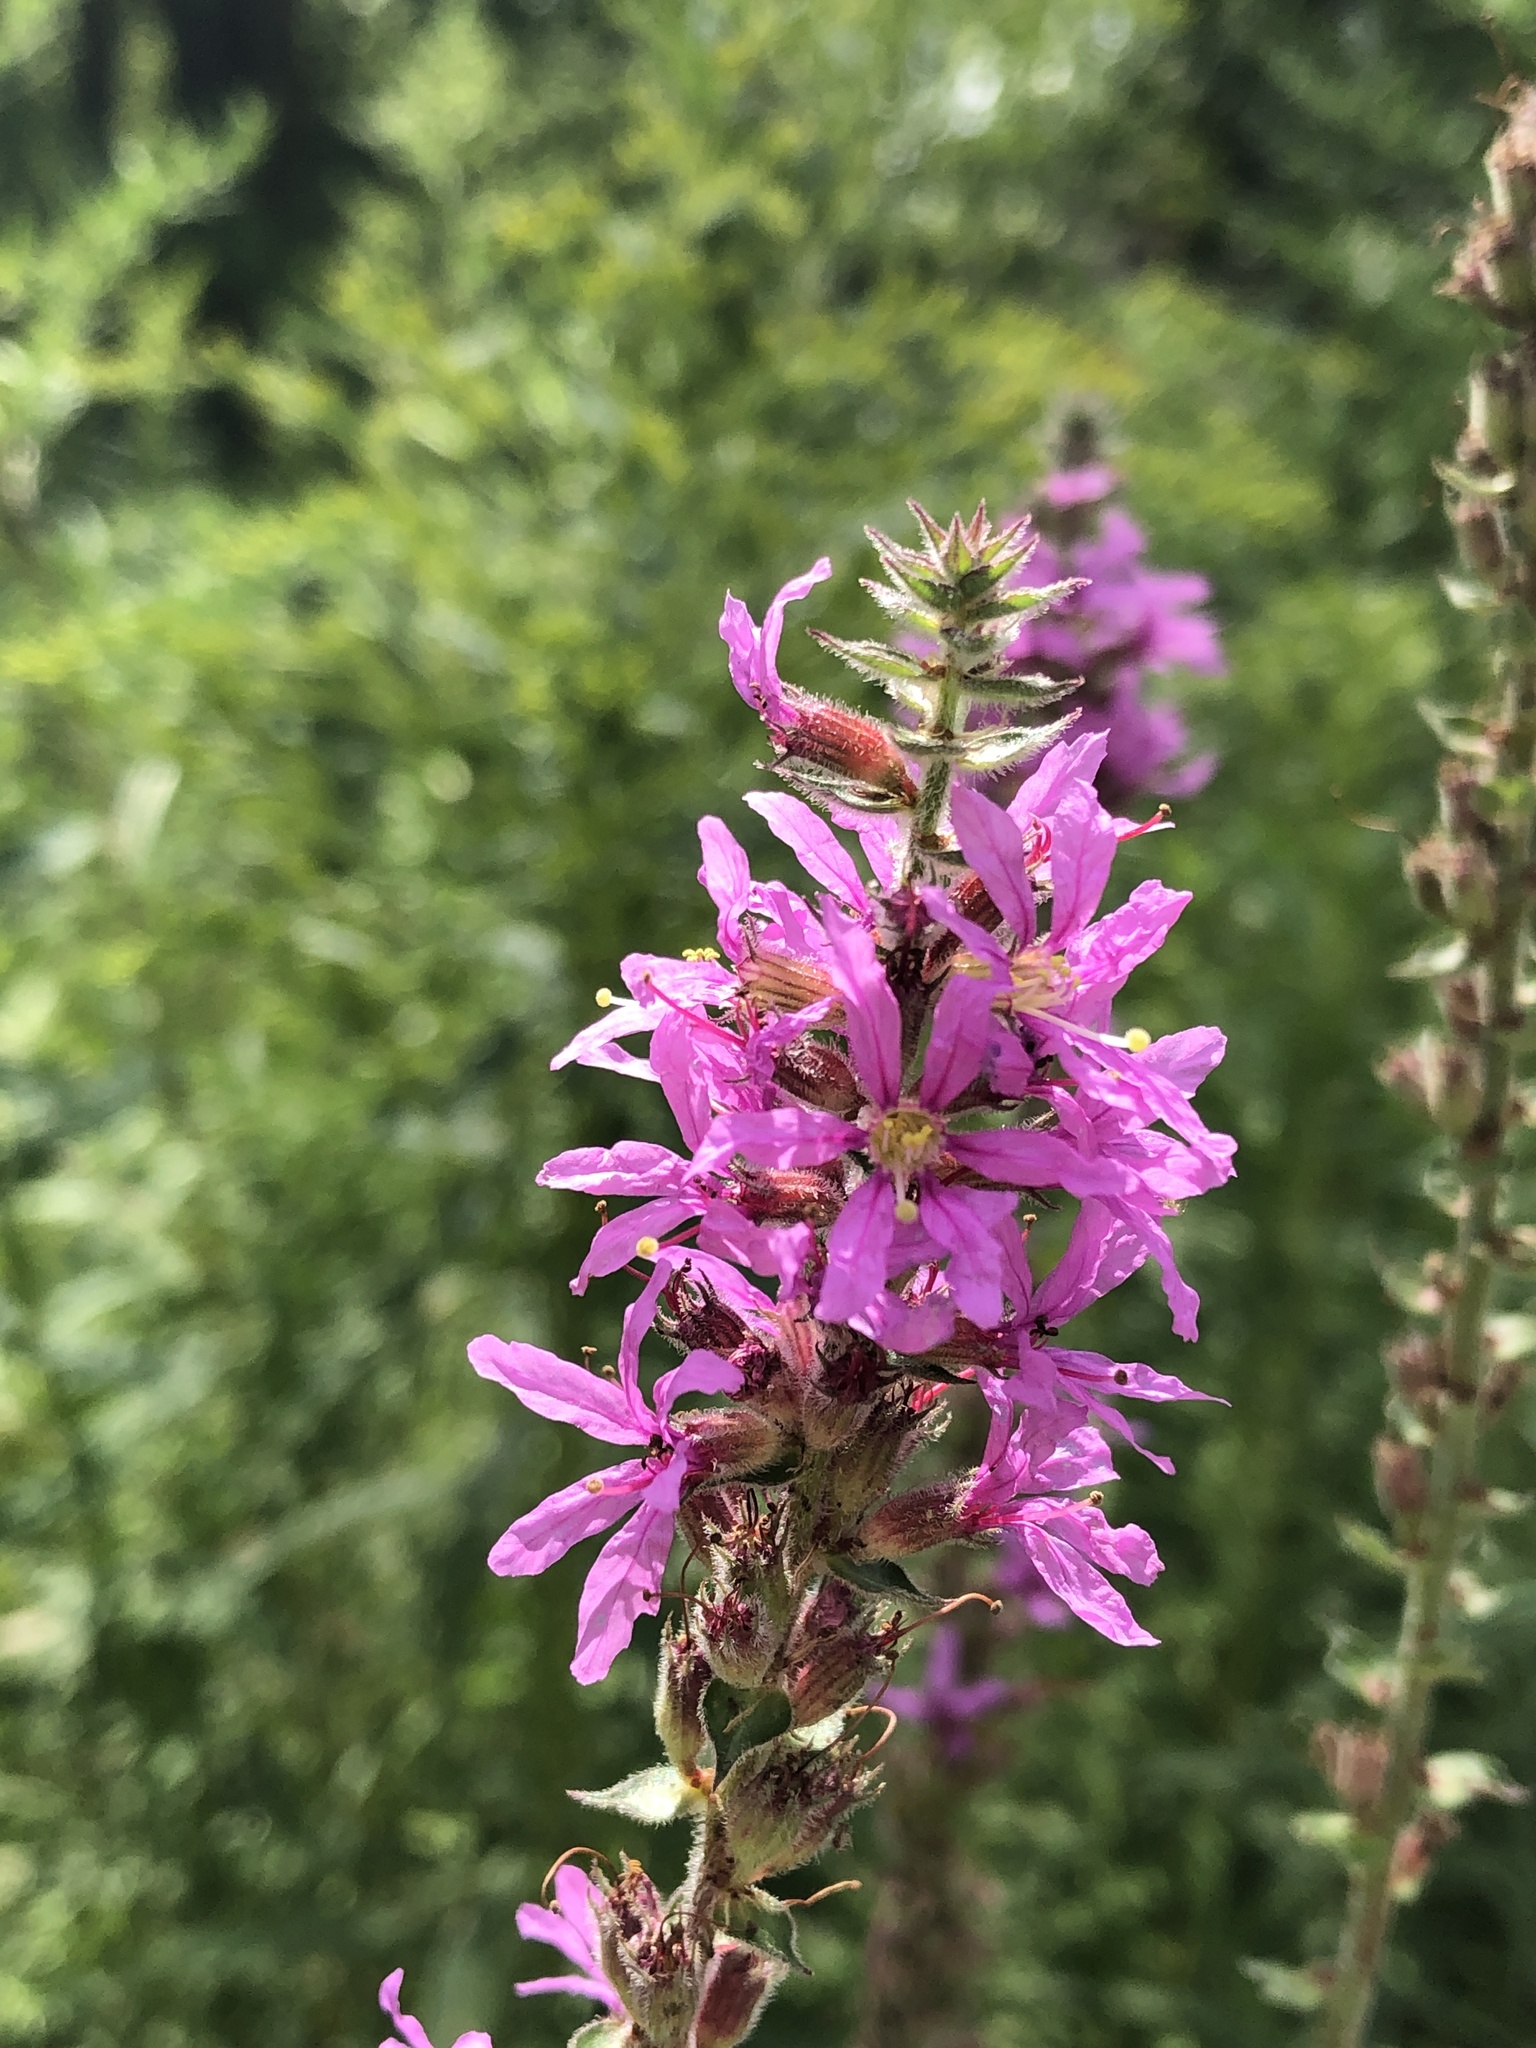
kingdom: Plantae
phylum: Tracheophyta
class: Magnoliopsida
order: Myrtales
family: Lythraceae
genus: Lythrum
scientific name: Lythrum salicaria
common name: Purple loosestrife
